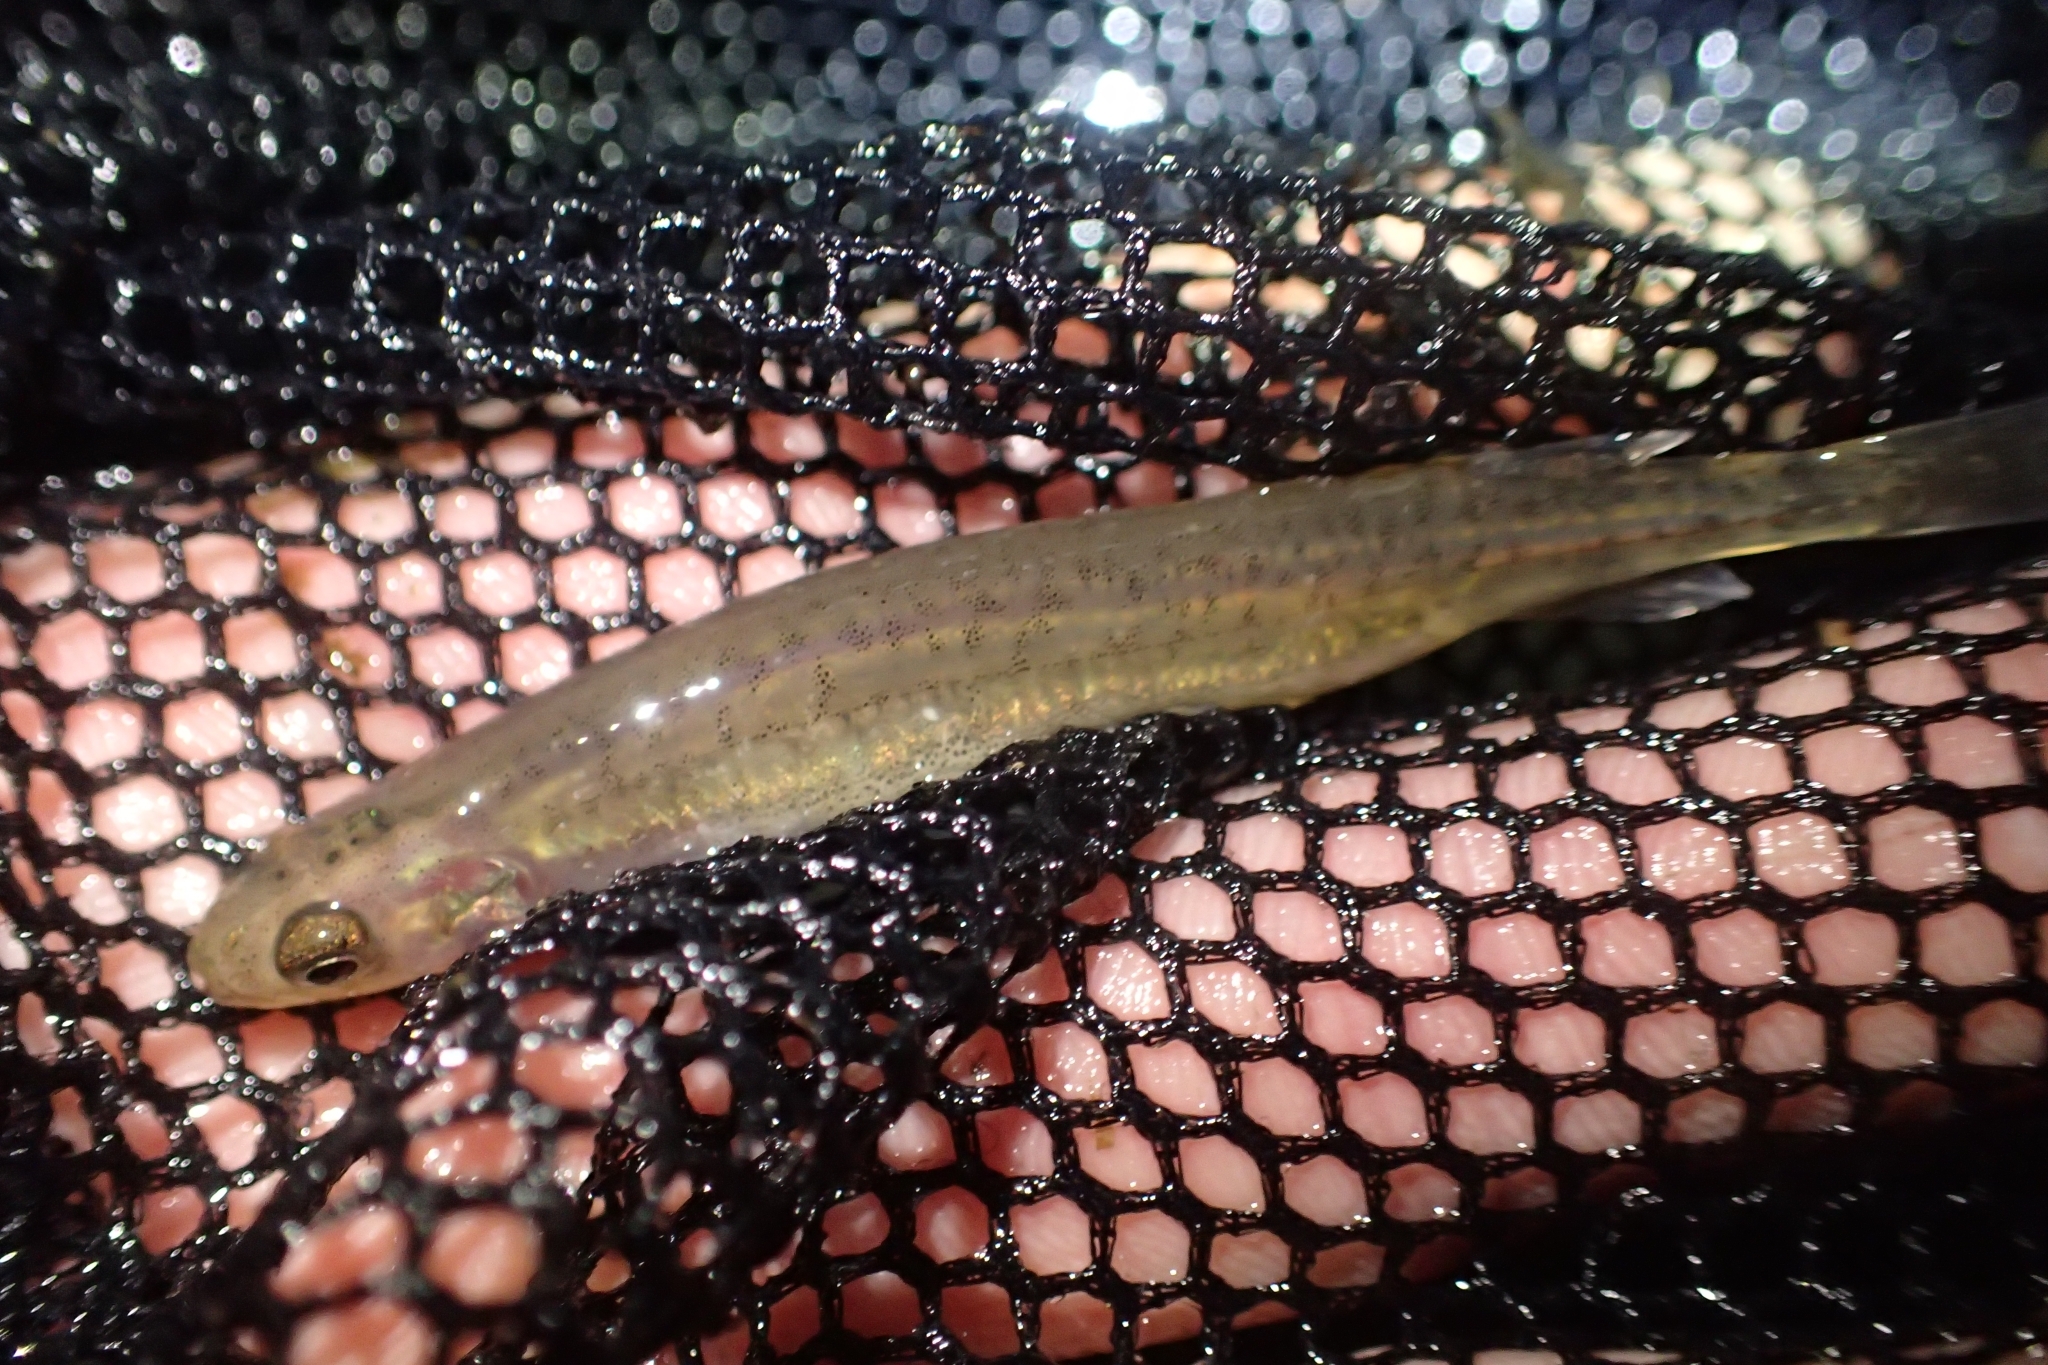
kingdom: Animalia
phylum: Chordata
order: Osmeriformes
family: Galaxiidae
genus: Galaxias
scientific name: Galaxias maculatus
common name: Common galaxias
